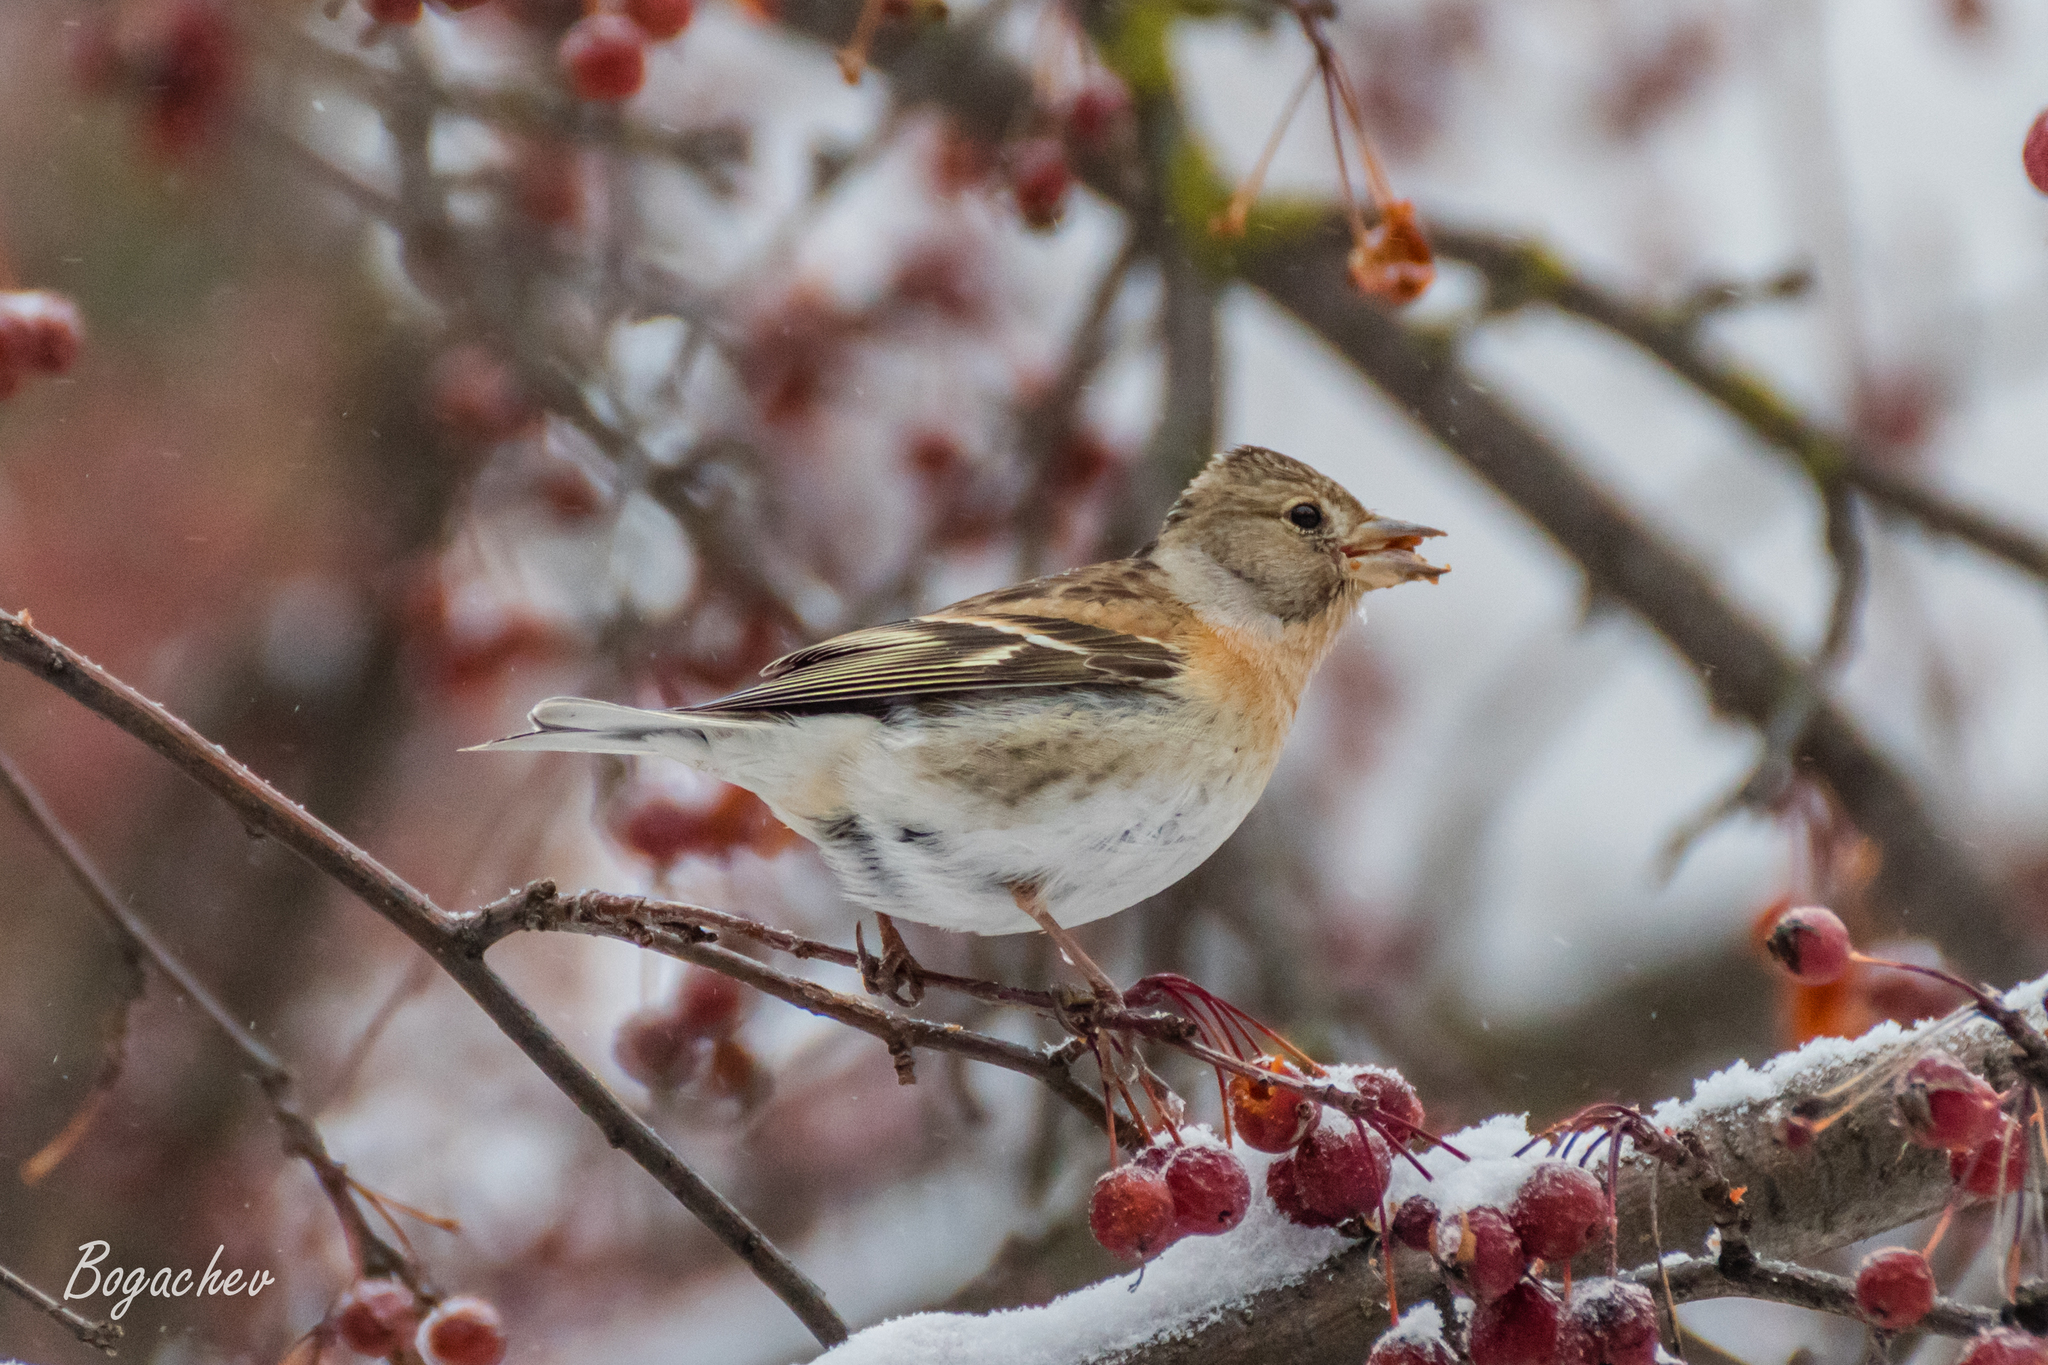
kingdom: Animalia
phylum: Chordata
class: Aves
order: Passeriformes
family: Fringillidae
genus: Fringilla
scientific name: Fringilla montifringilla
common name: Brambling
